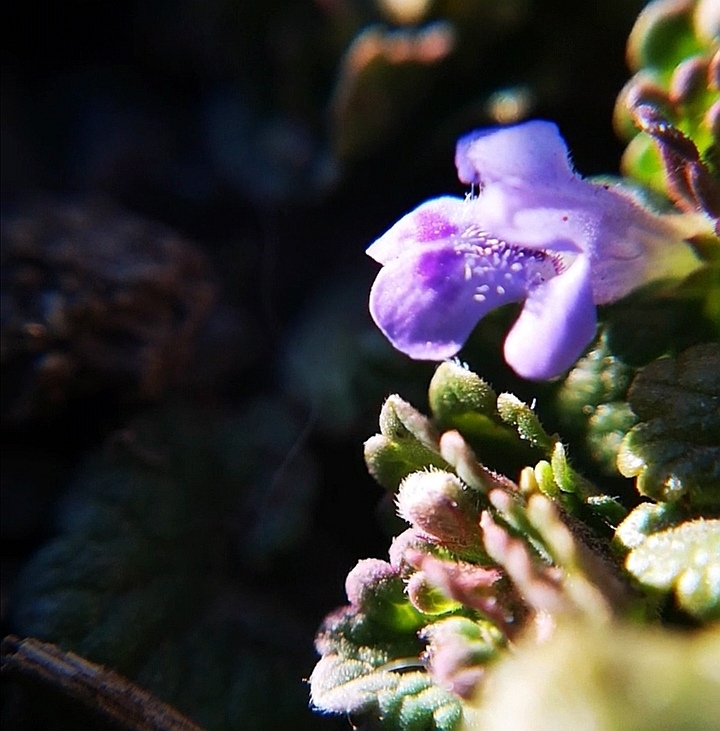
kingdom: Plantae
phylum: Tracheophyta
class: Magnoliopsida
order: Lamiales
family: Lamiaceae
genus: Glechoma
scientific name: Glechoma hederacea
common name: Ground ivy
